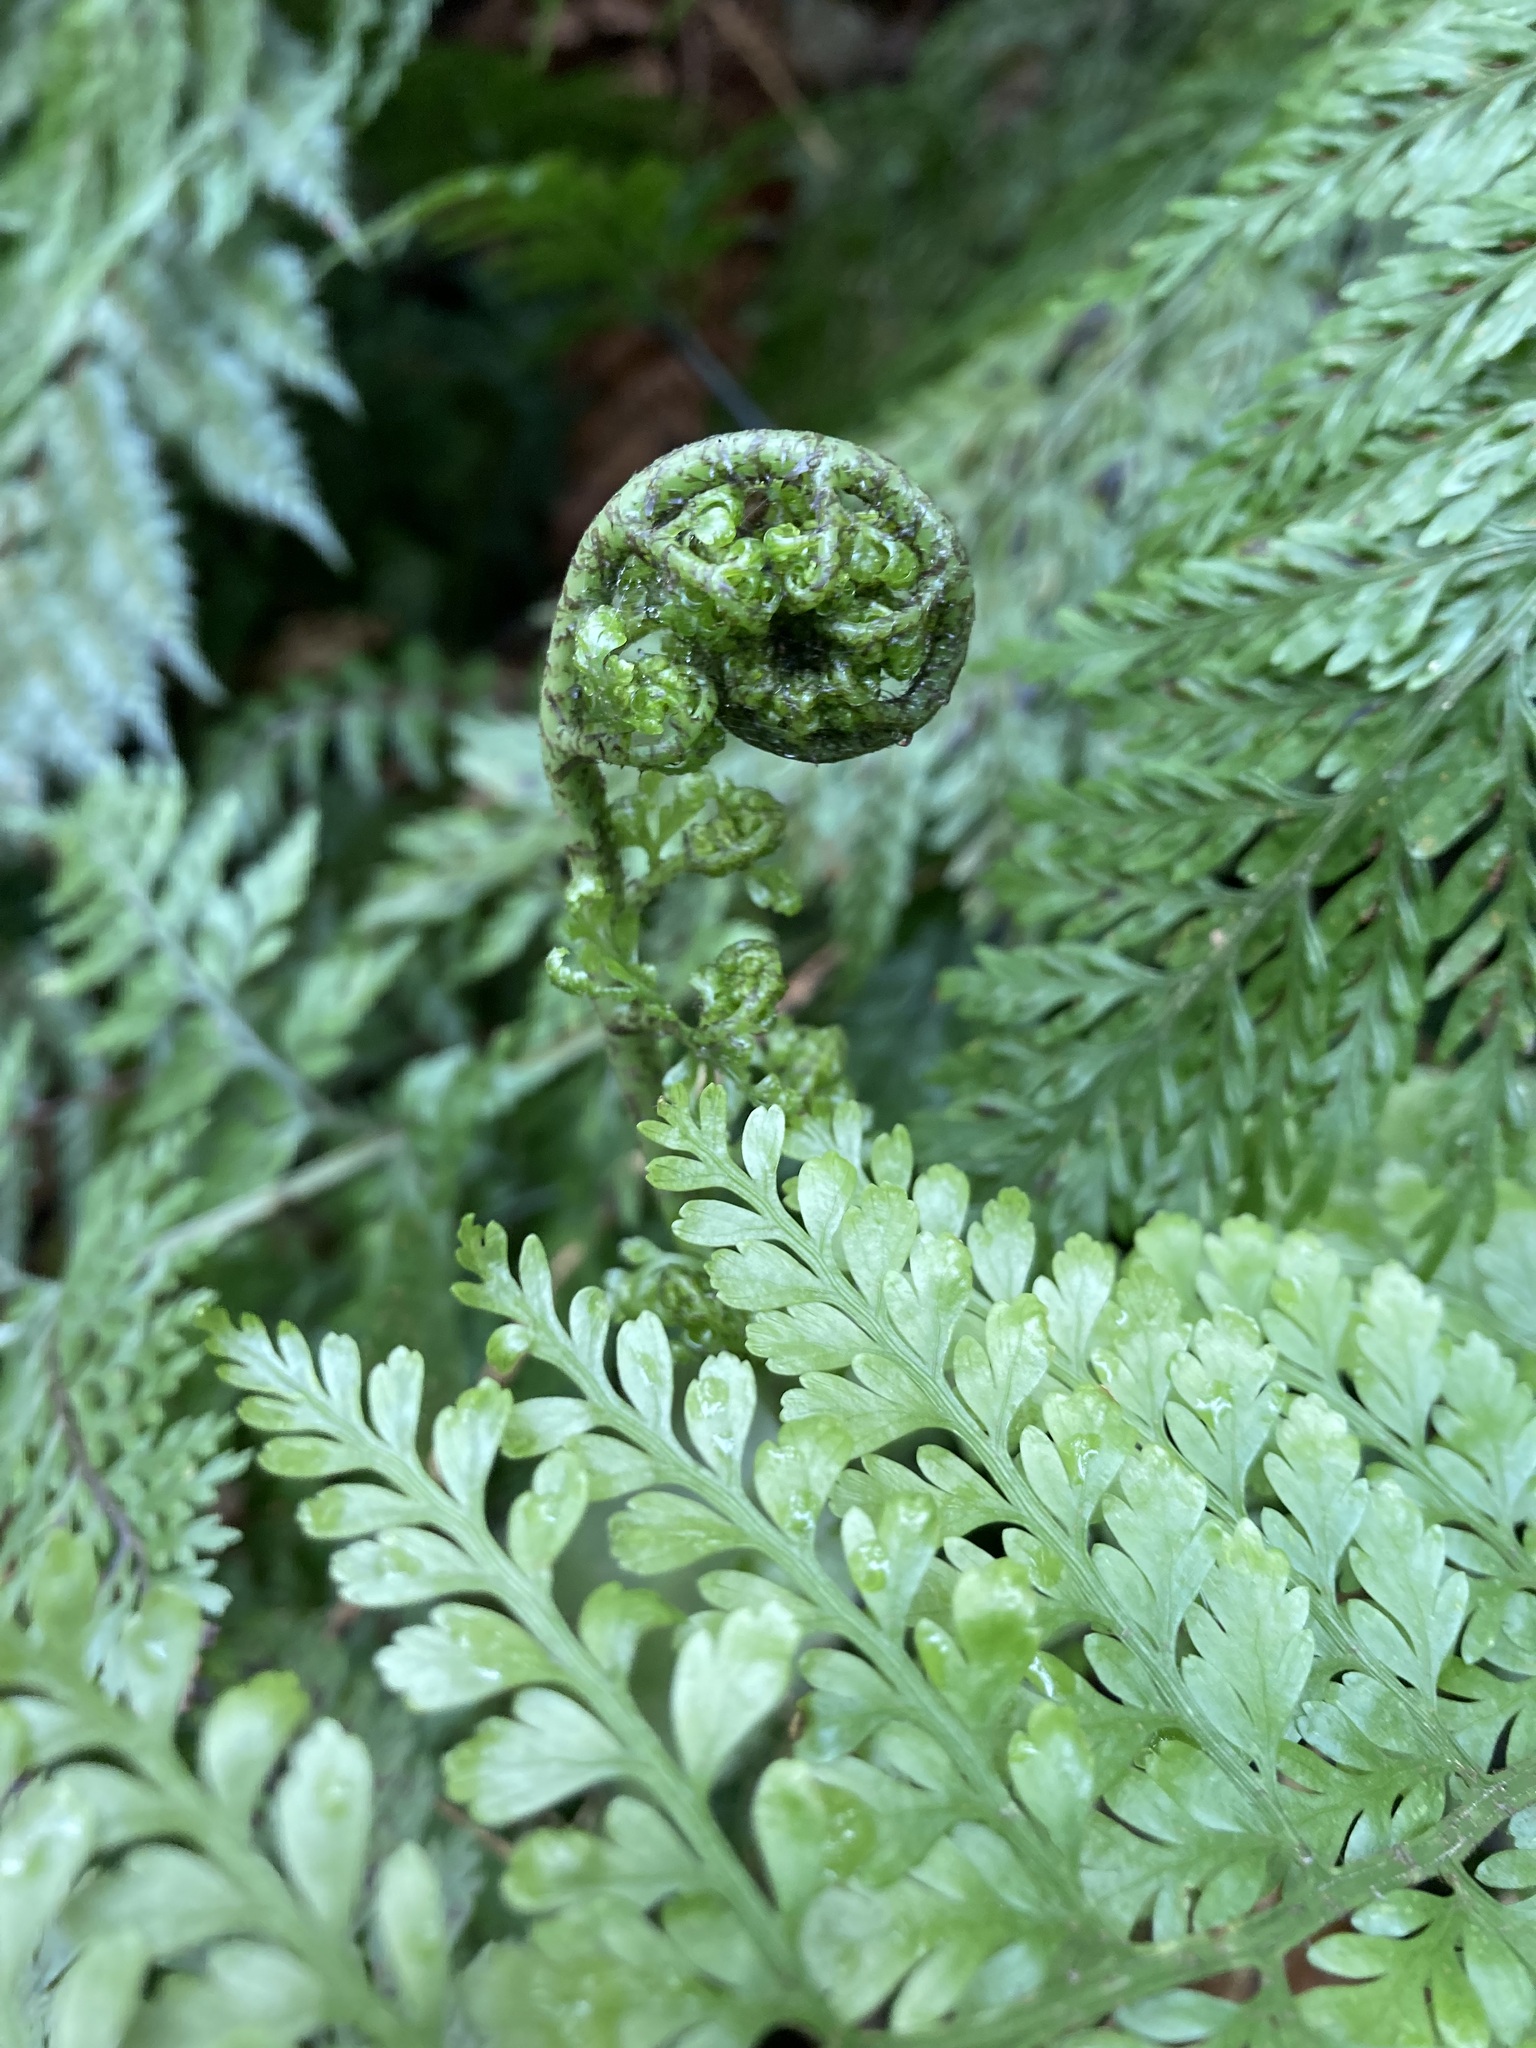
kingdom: Plantae
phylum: Tracheophyta
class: Polypodiopsida
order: Polypodiales
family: Aspleniaceae
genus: Asplenium
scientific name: Asplenium
